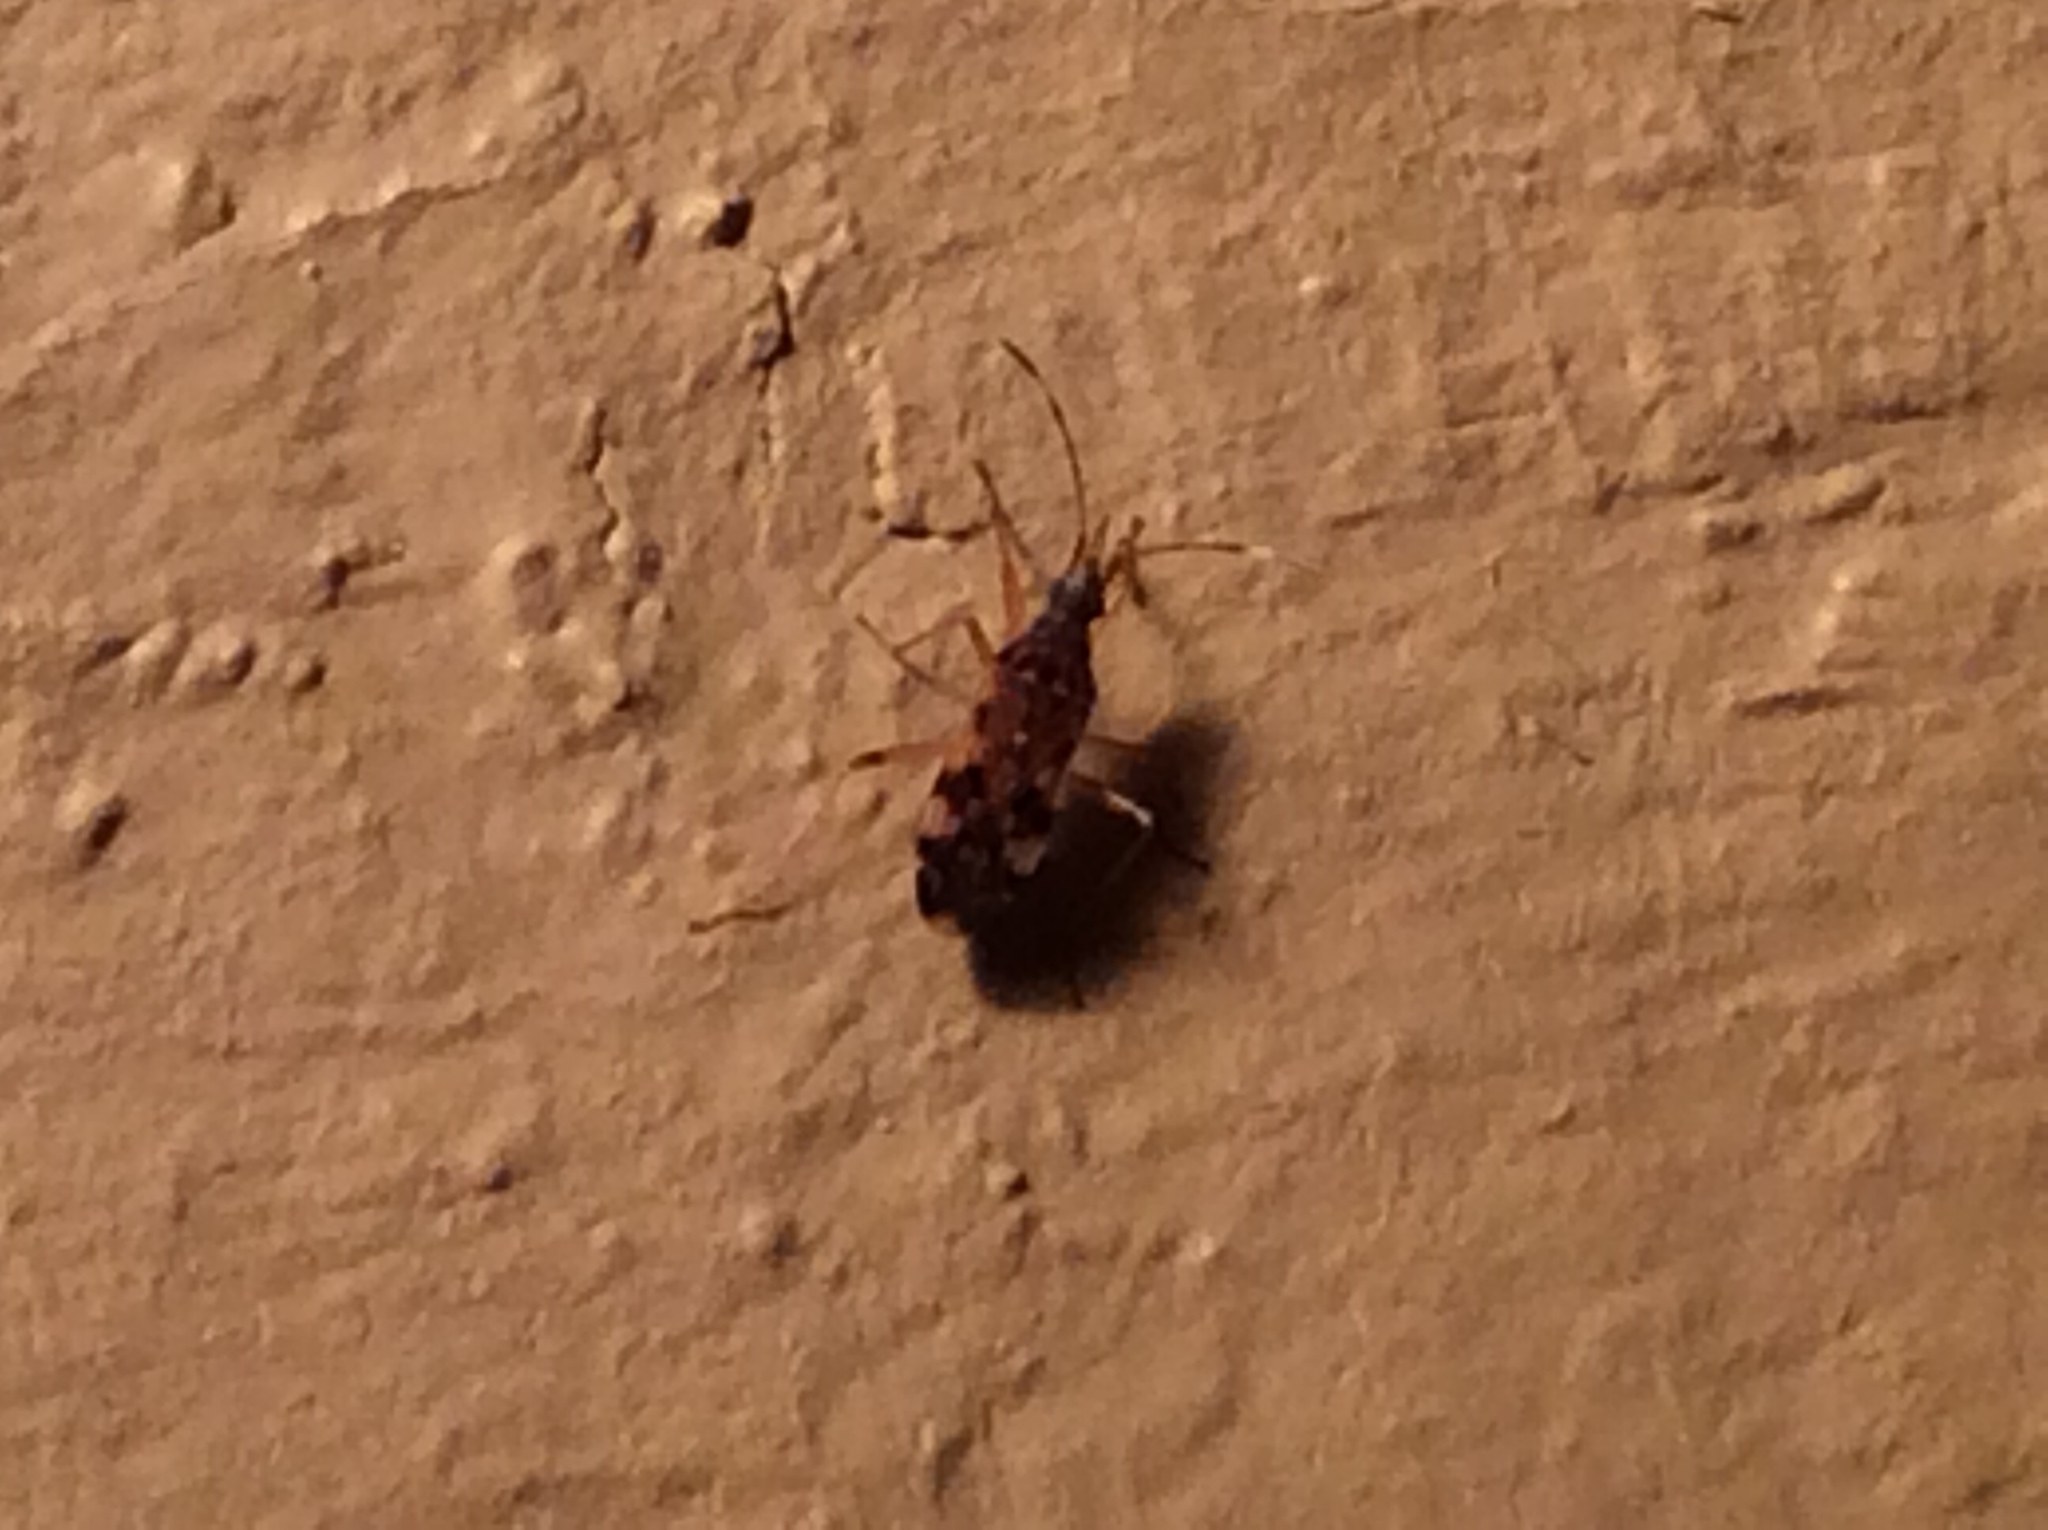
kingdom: Animalia
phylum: Arthropoda
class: Insecta
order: Hemiptera
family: Rhyparochromidae
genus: Ozophora
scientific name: Ozophora picturata
